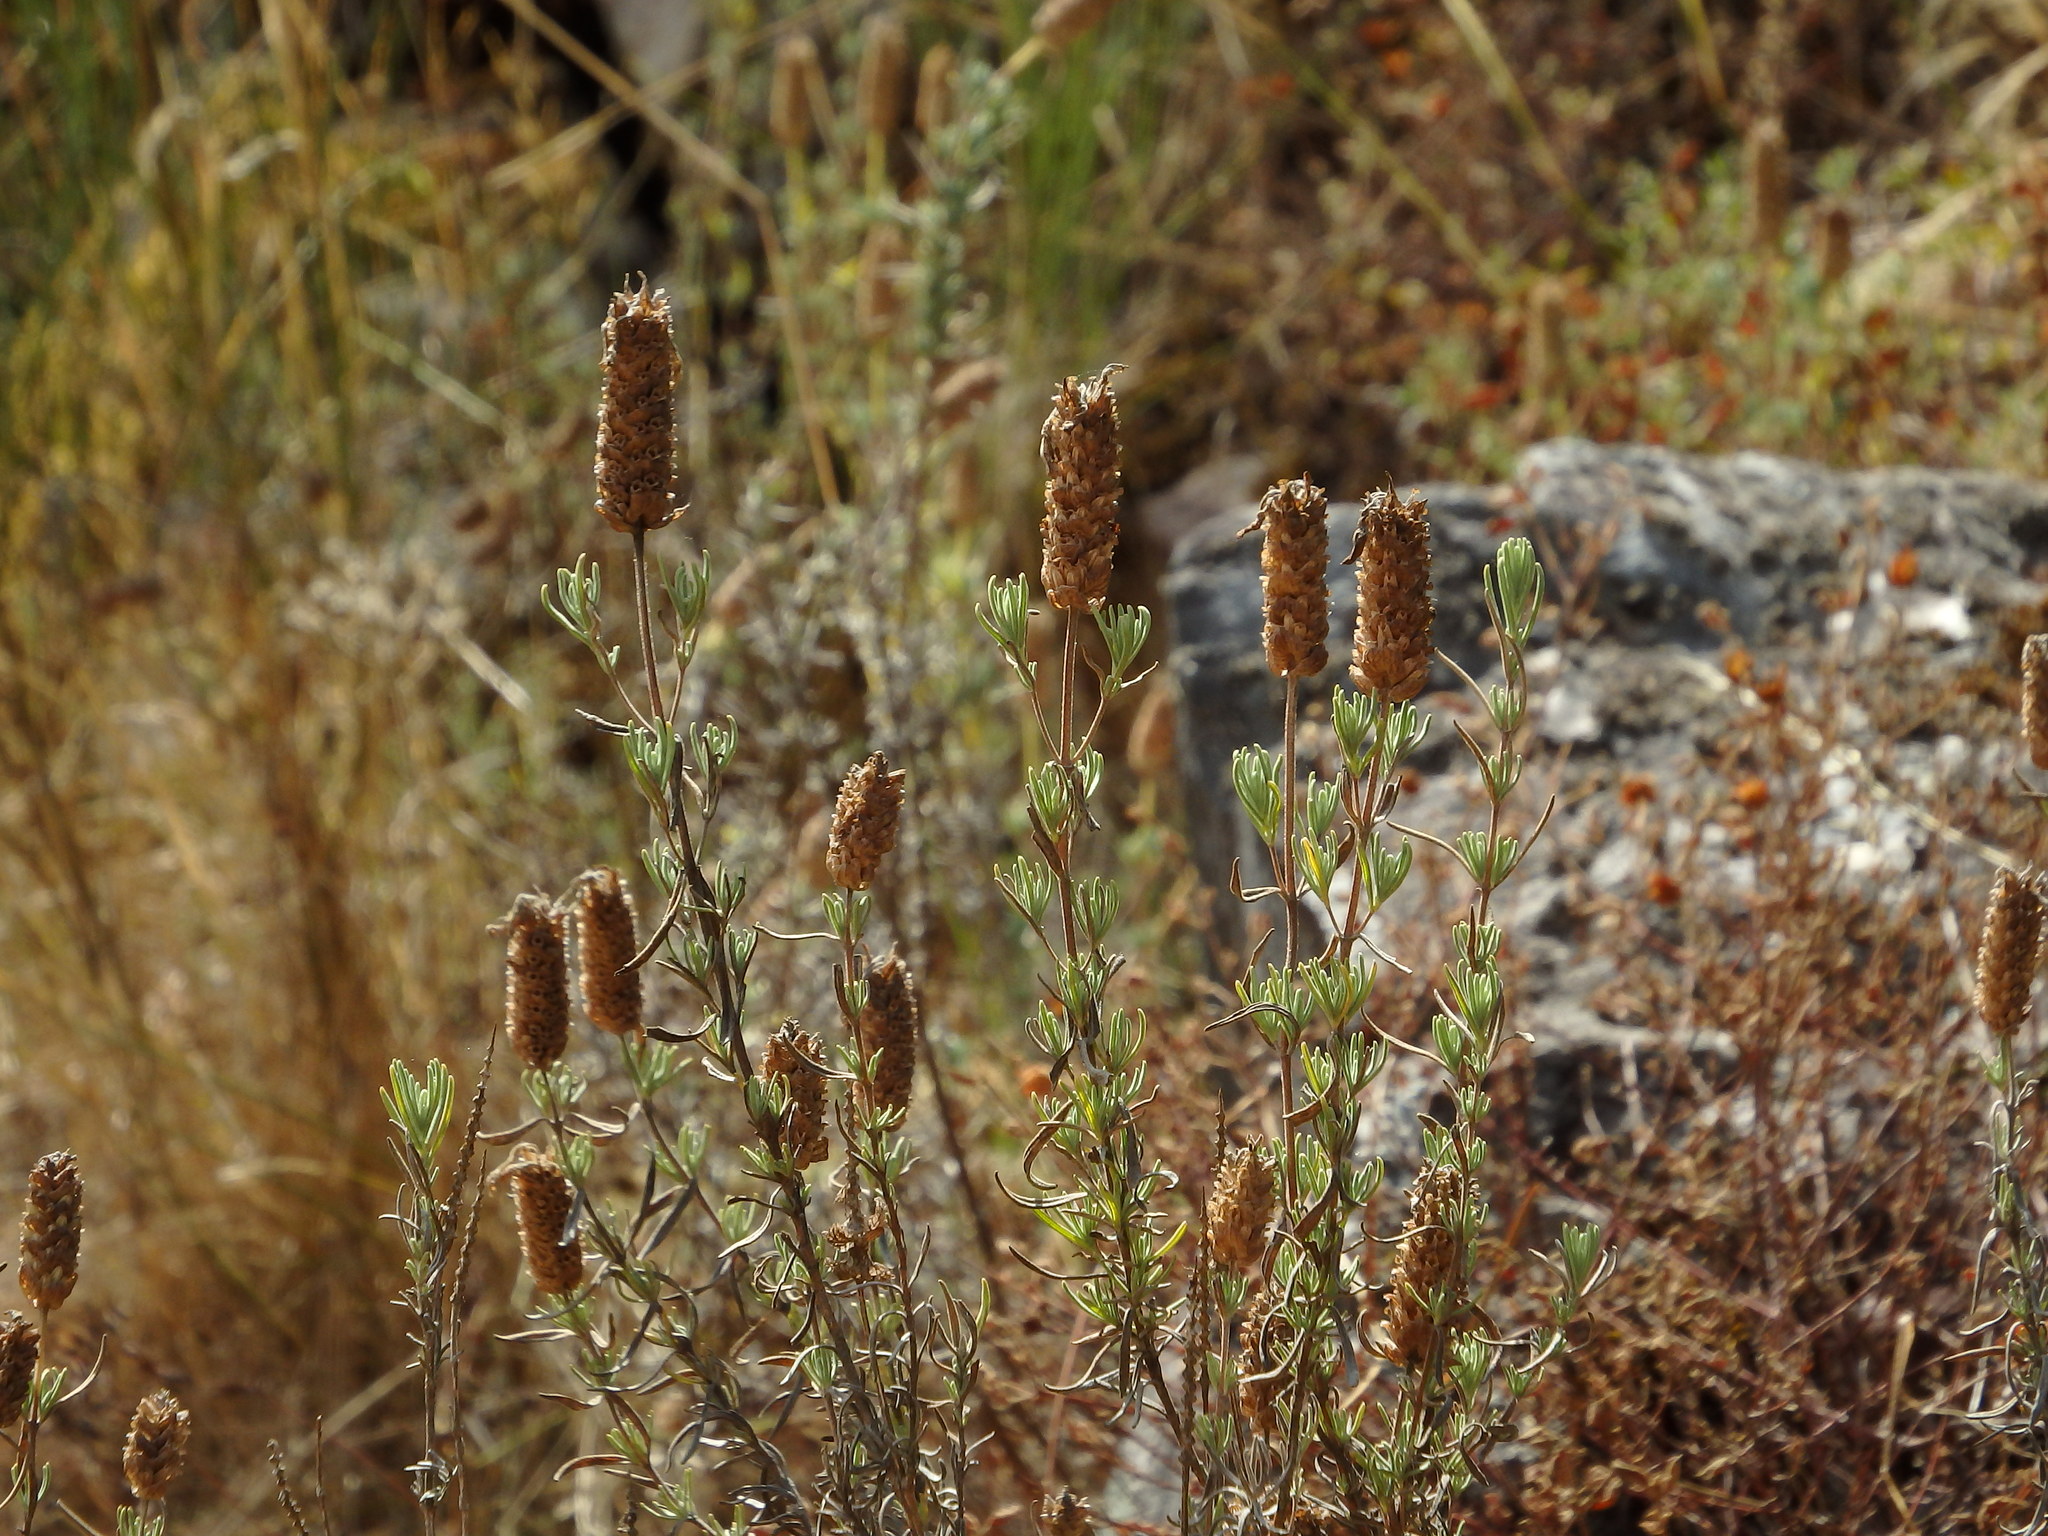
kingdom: Plantae
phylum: Tracheophyta
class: Magnoliopsida
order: Lamiales
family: Lamiaceae
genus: Lavandula
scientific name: Lavandula stoechas
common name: French lavender
